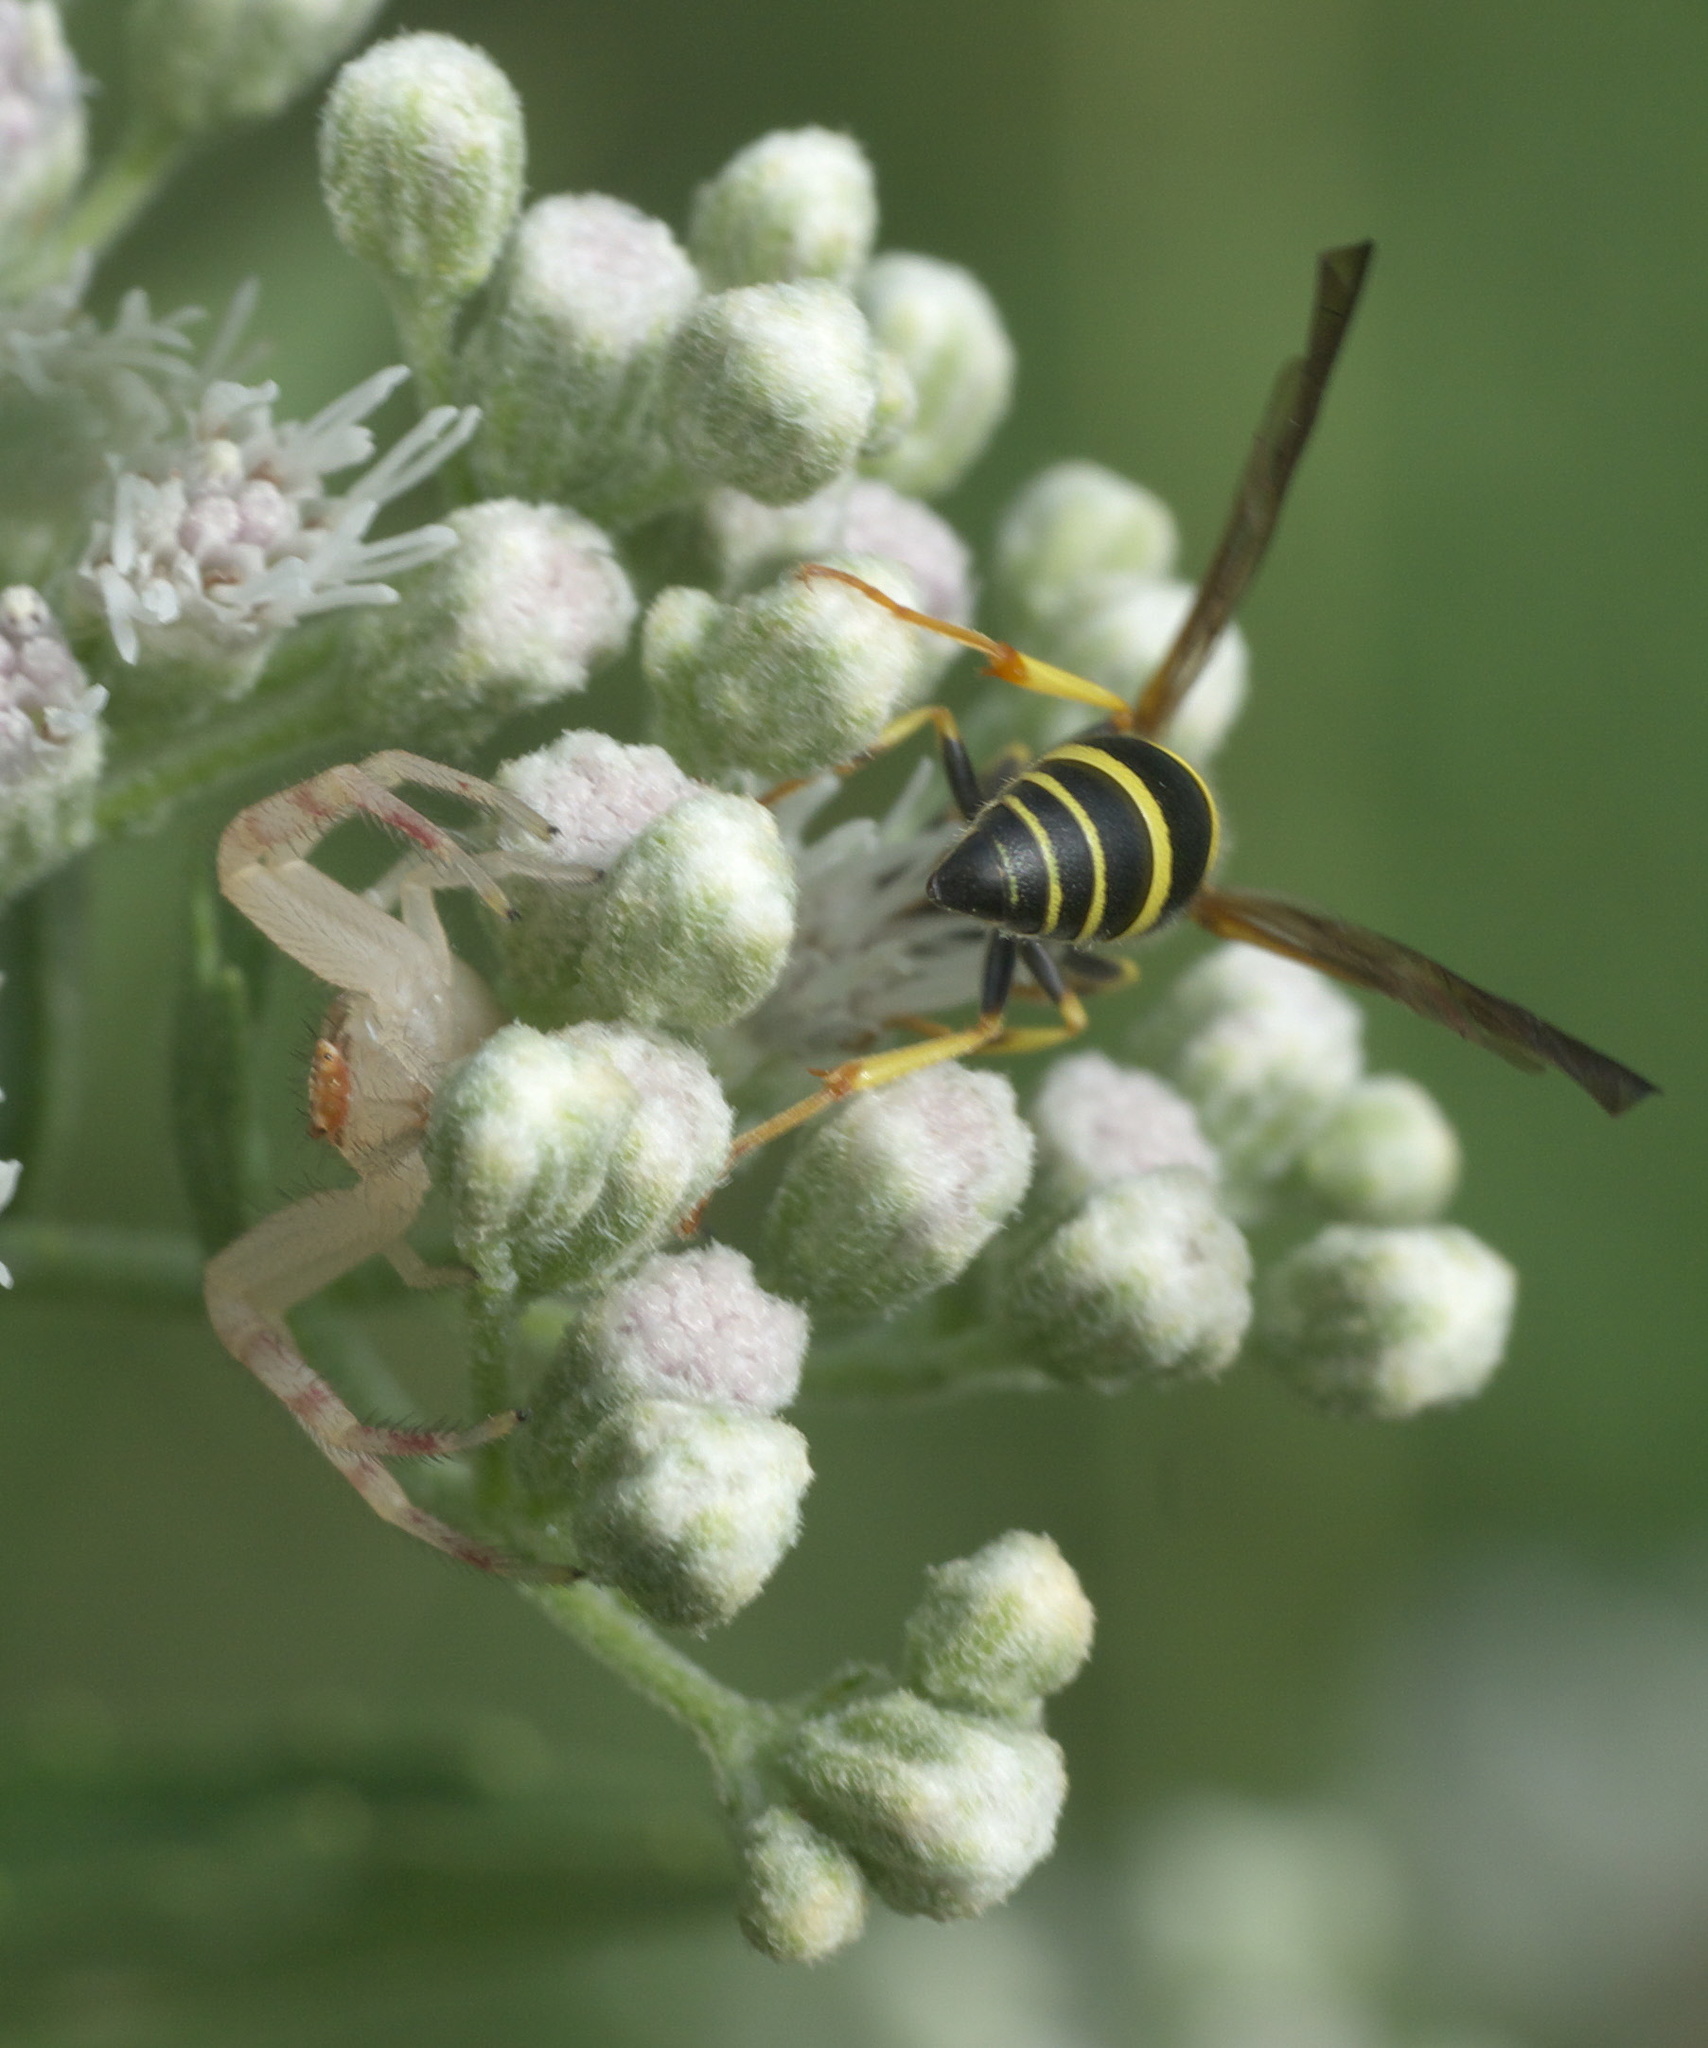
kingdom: Animalia
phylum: Arthropoda
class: Insecta
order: Hymenoptera
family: Vespidae
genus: Ancistrocerus
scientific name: Ancistrocerus adiabatus
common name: Bramble mason wasp
